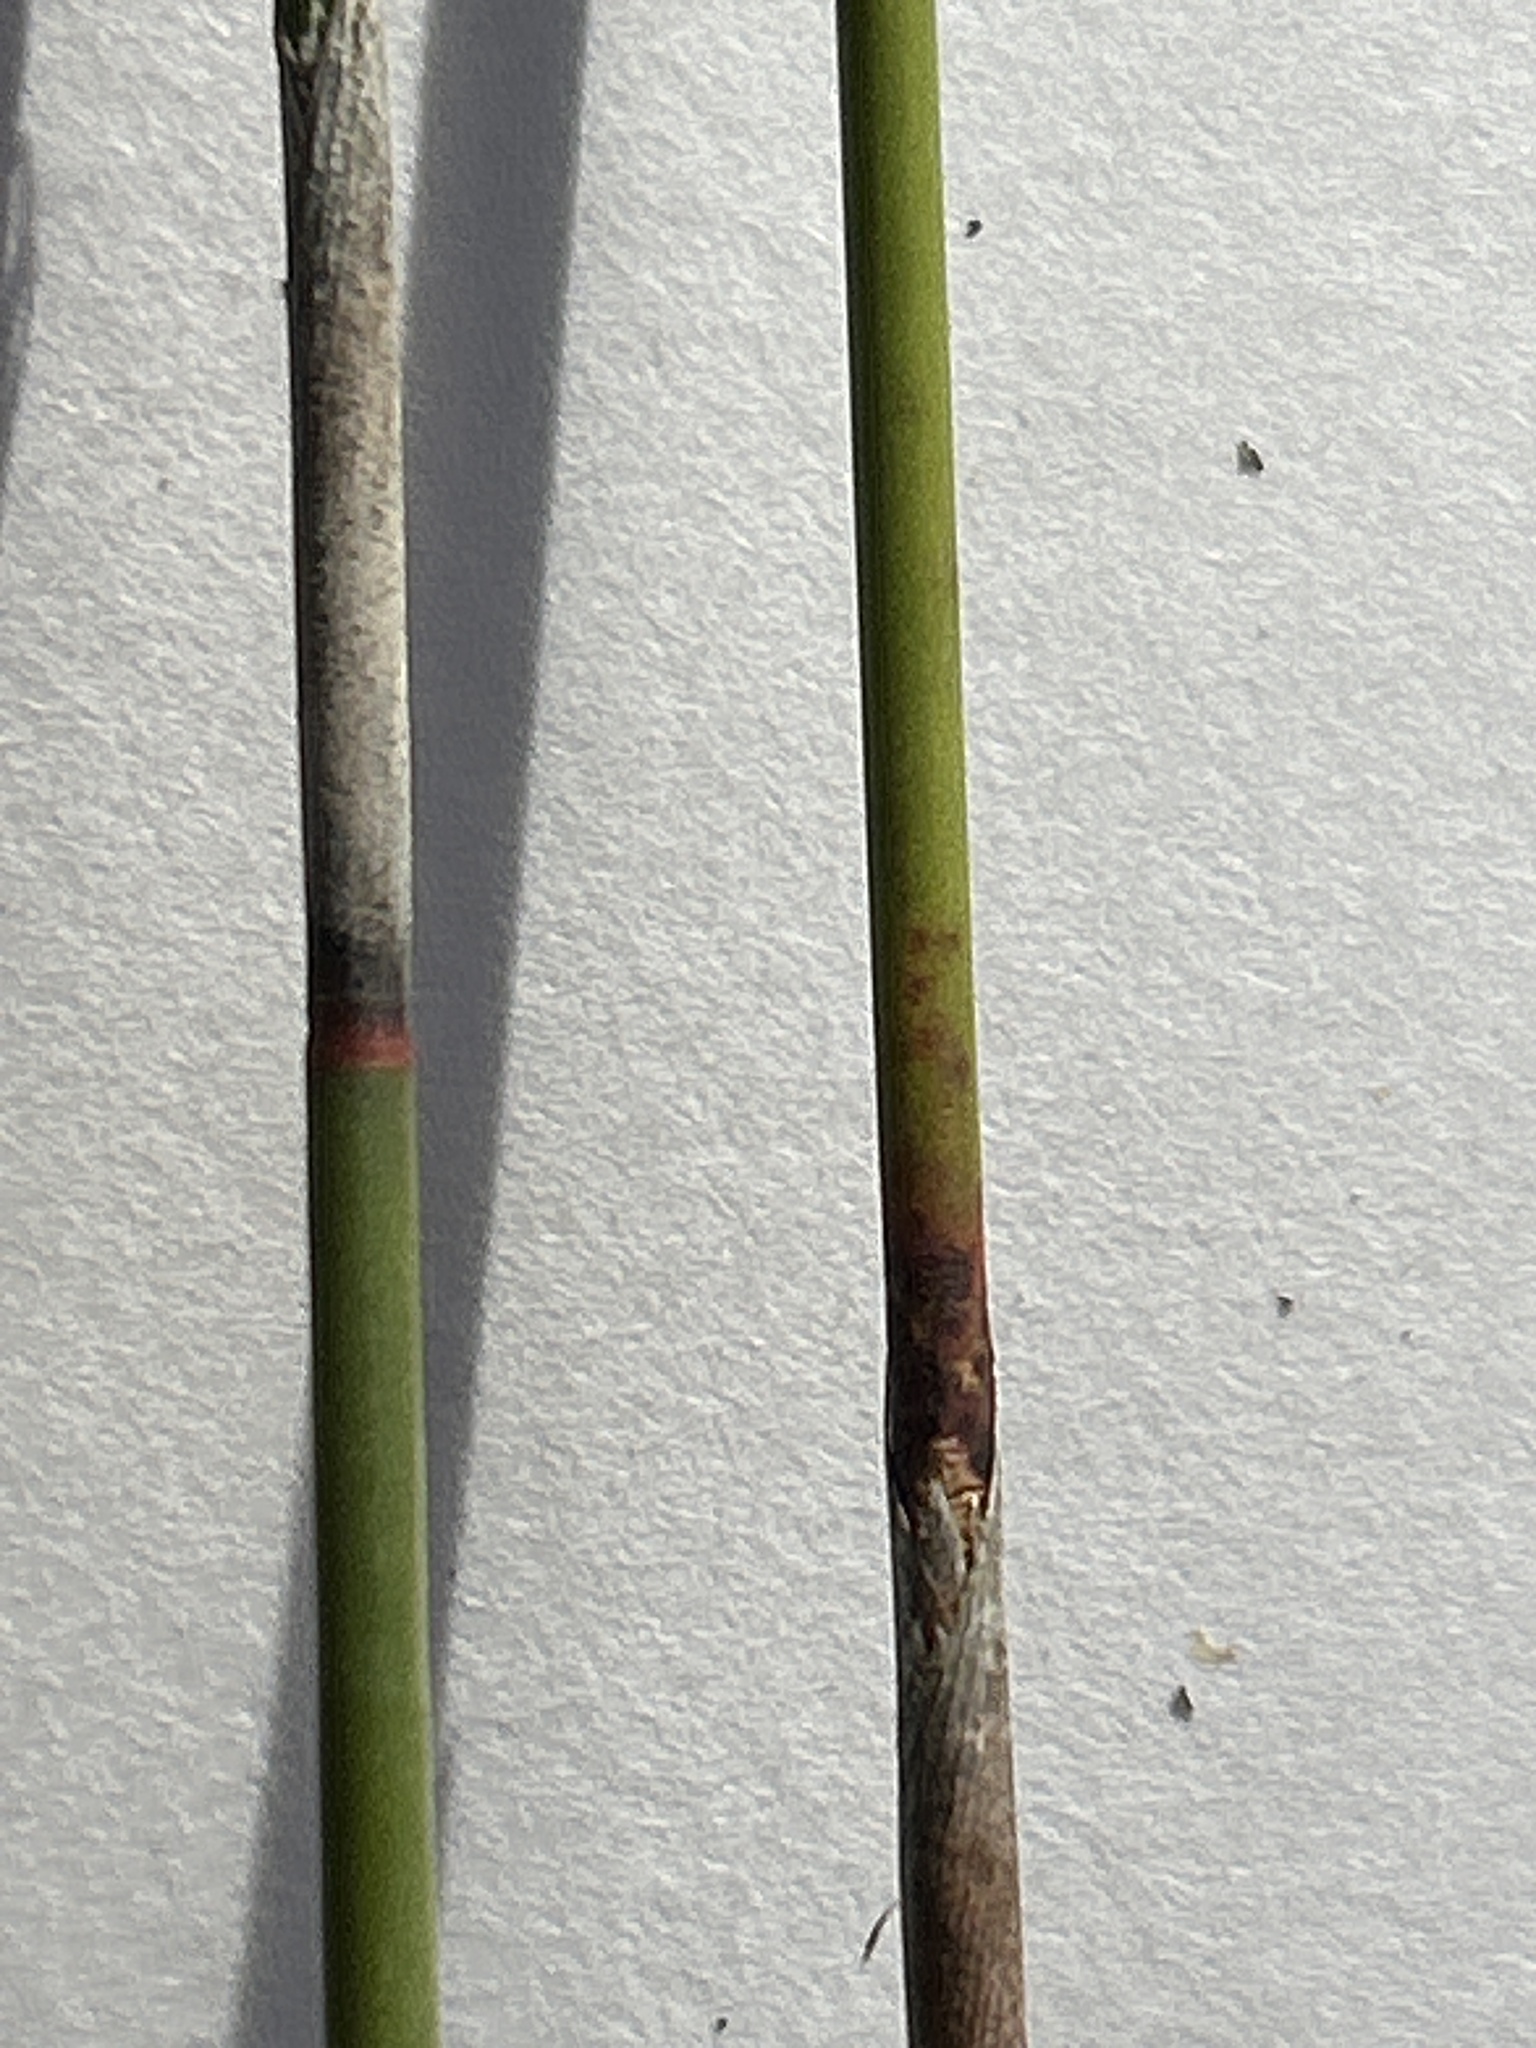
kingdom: Plantae
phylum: Tracheophyta
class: Liliopsida
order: Poales
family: Restionaceae
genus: Thamnochortus
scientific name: Thamnochortus insignis
